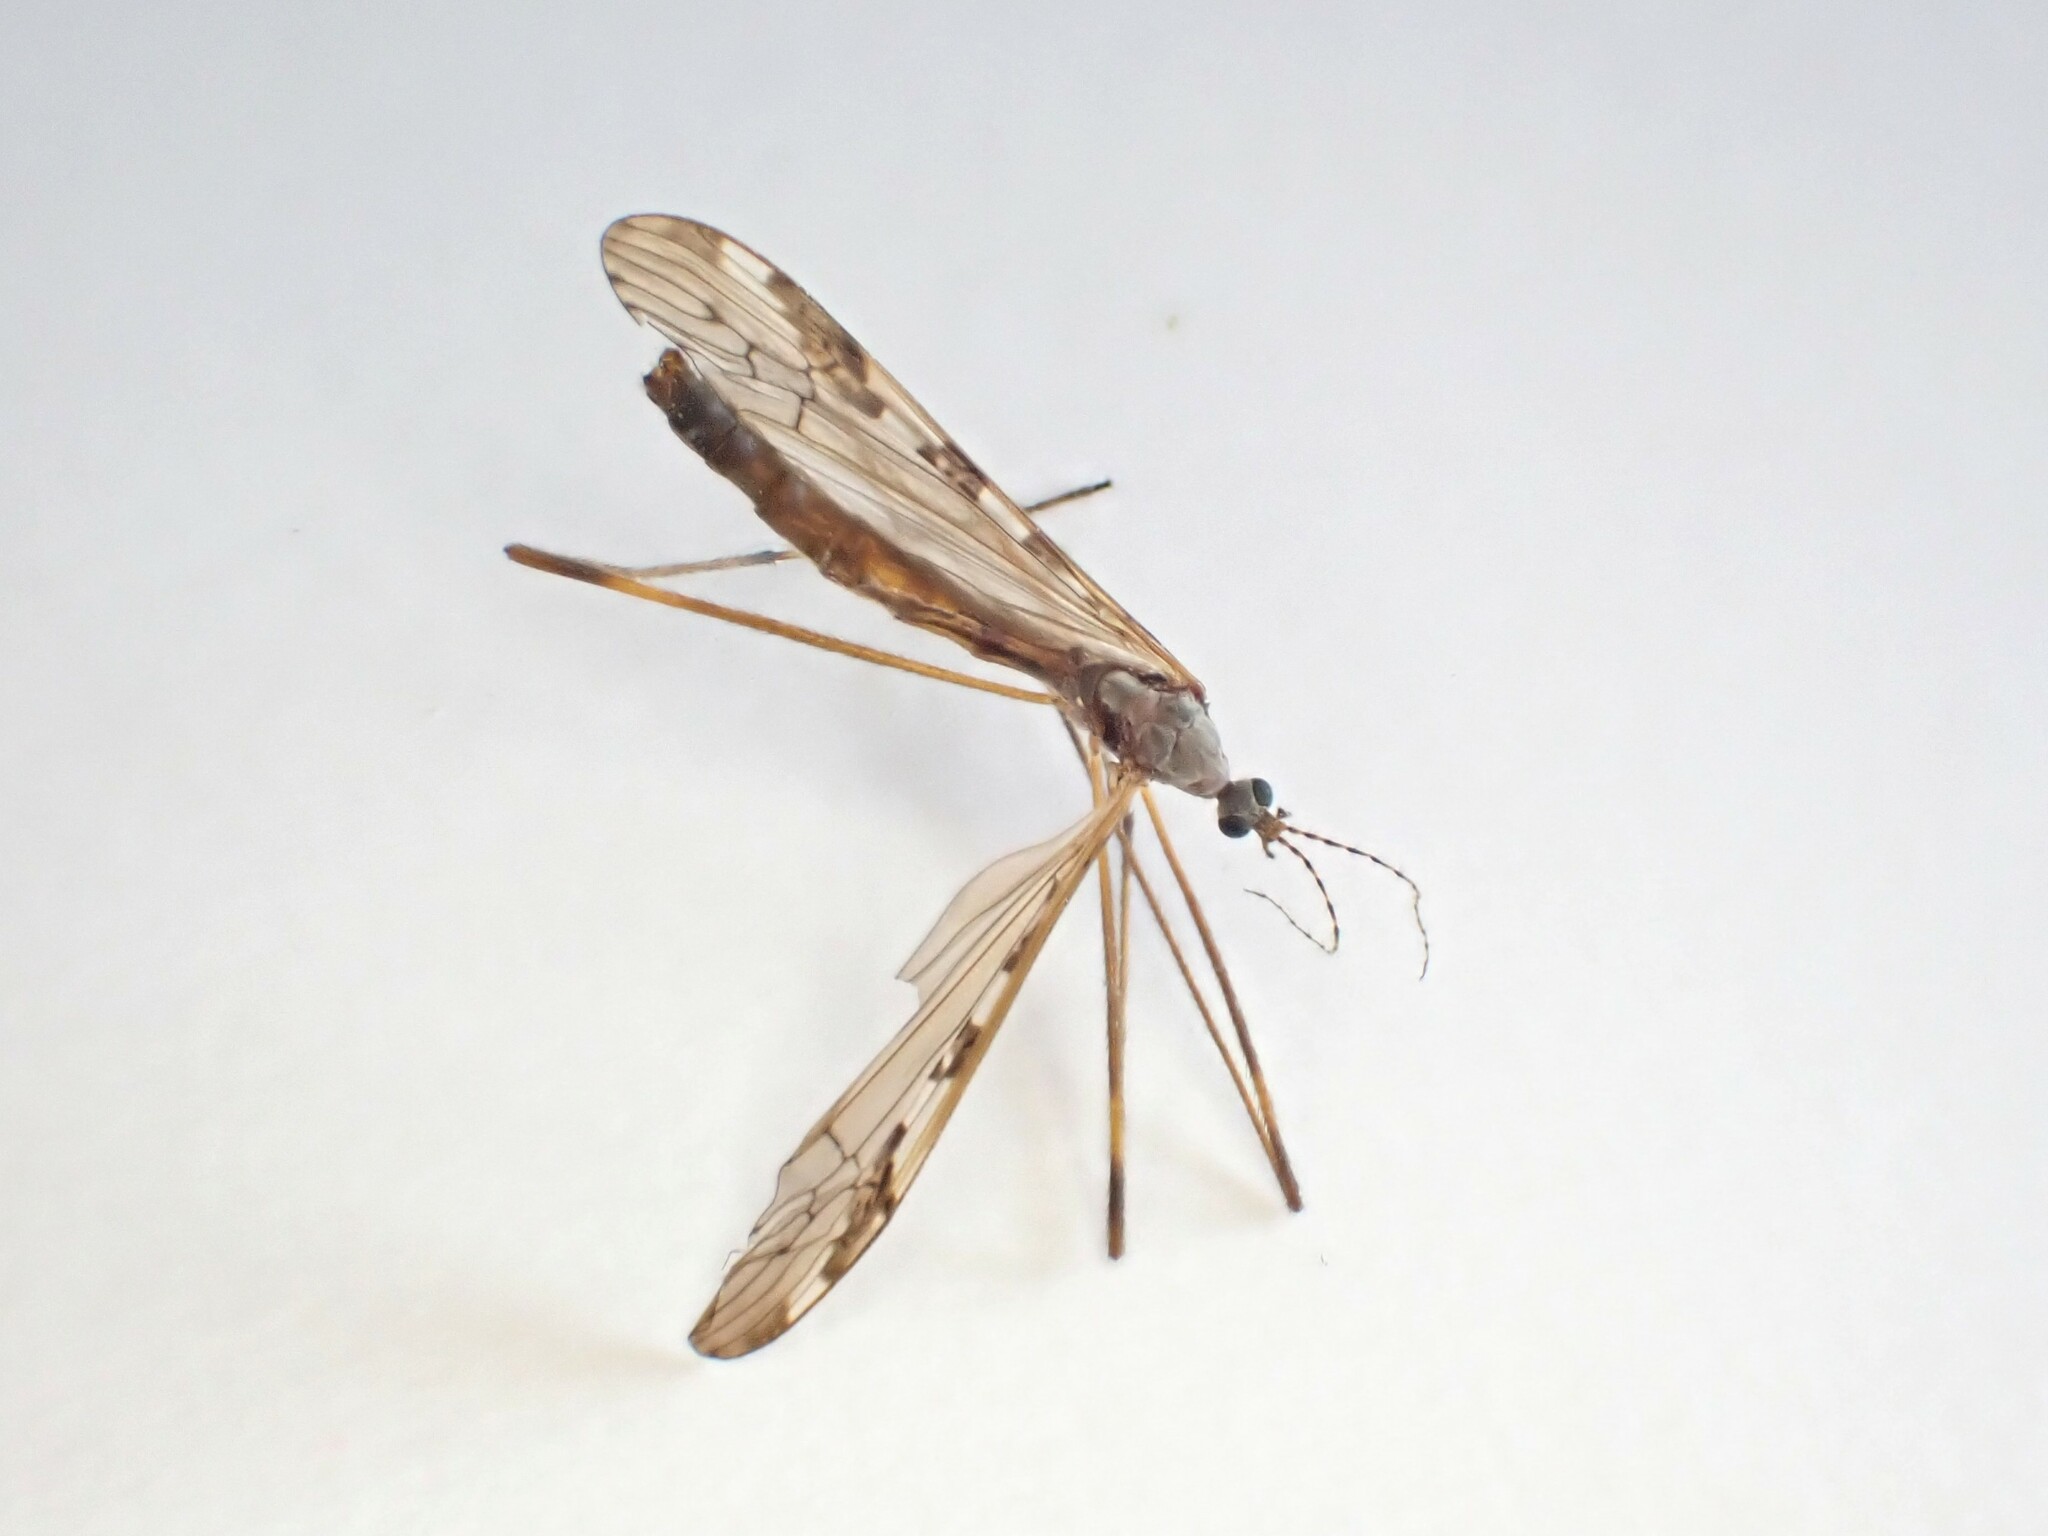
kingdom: Animalia
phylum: Arthropoda
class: Insecta
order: Diptera
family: Limoniidae
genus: Paralimnophila
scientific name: Paralimnophila skusei
